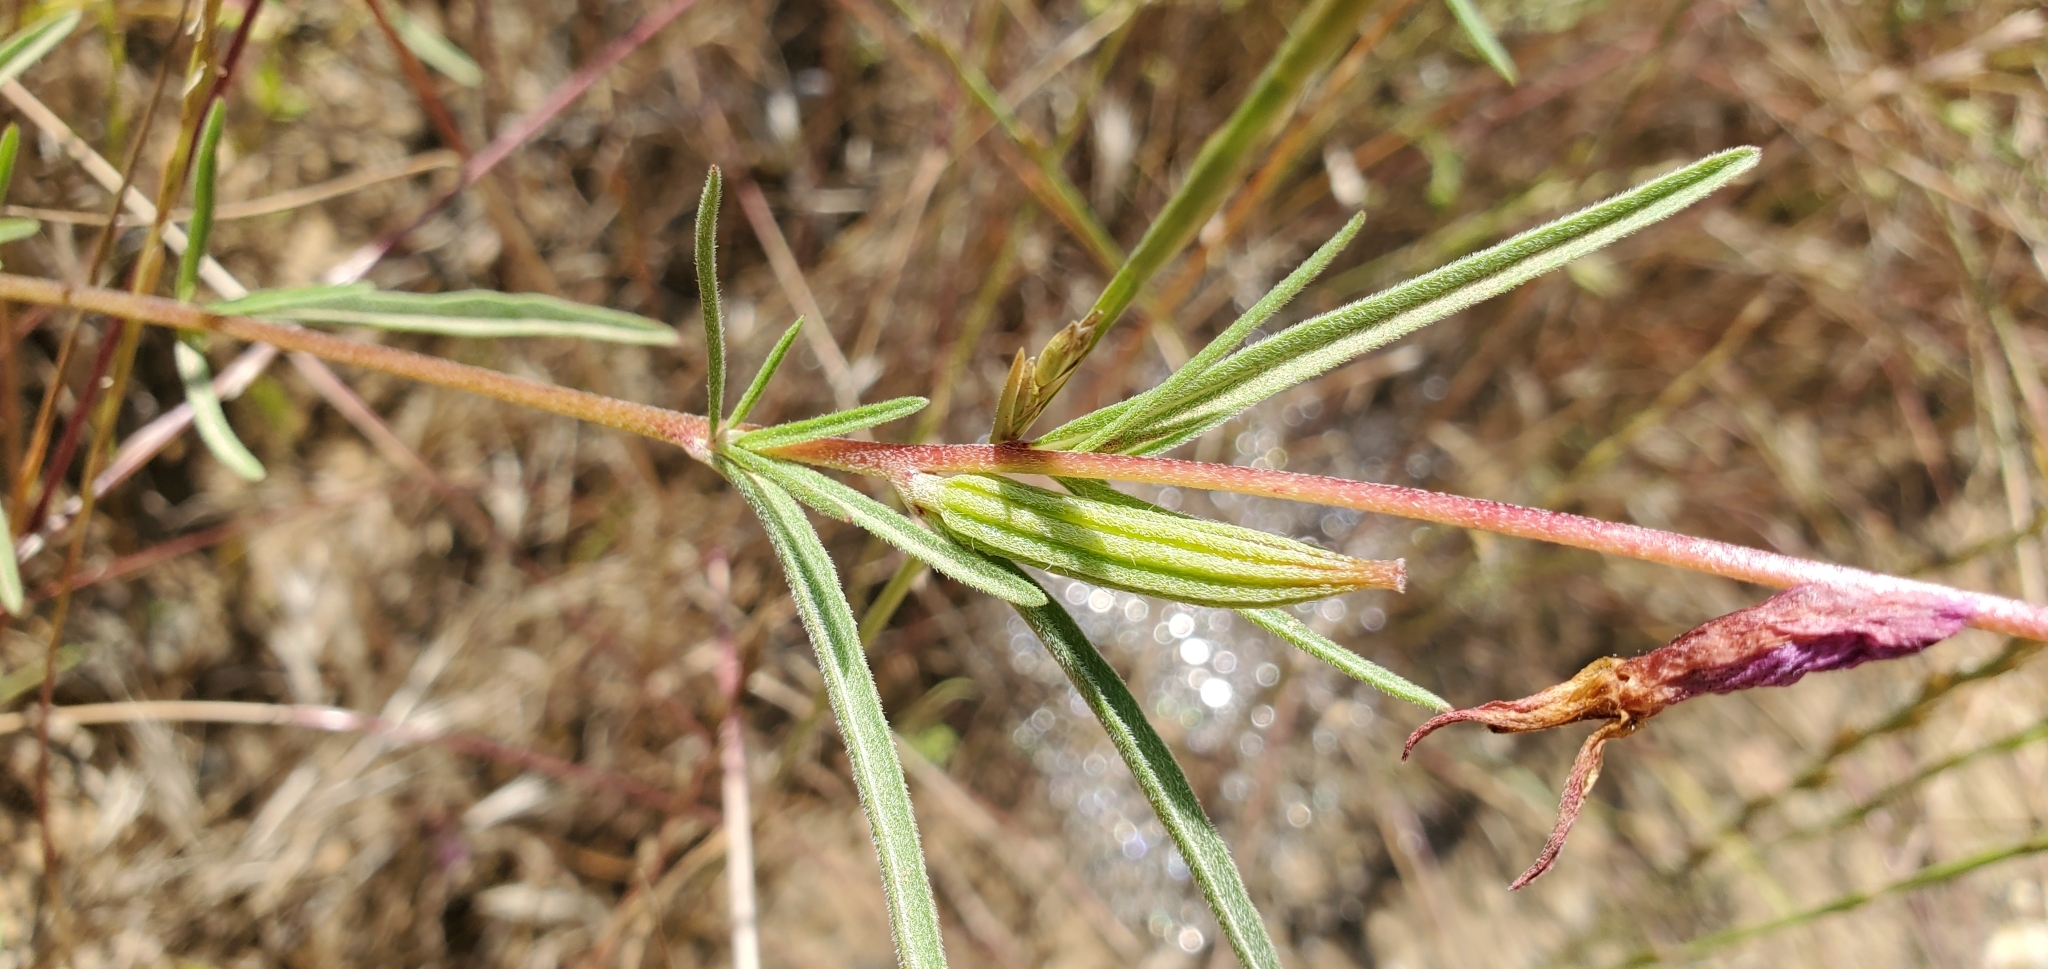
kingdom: Plantae
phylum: Tracheophyta
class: Magnoliopsida
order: Myrtales
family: Onagraceae
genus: Clarkia
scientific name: Clarkia purpurea
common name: Purple clarkia
